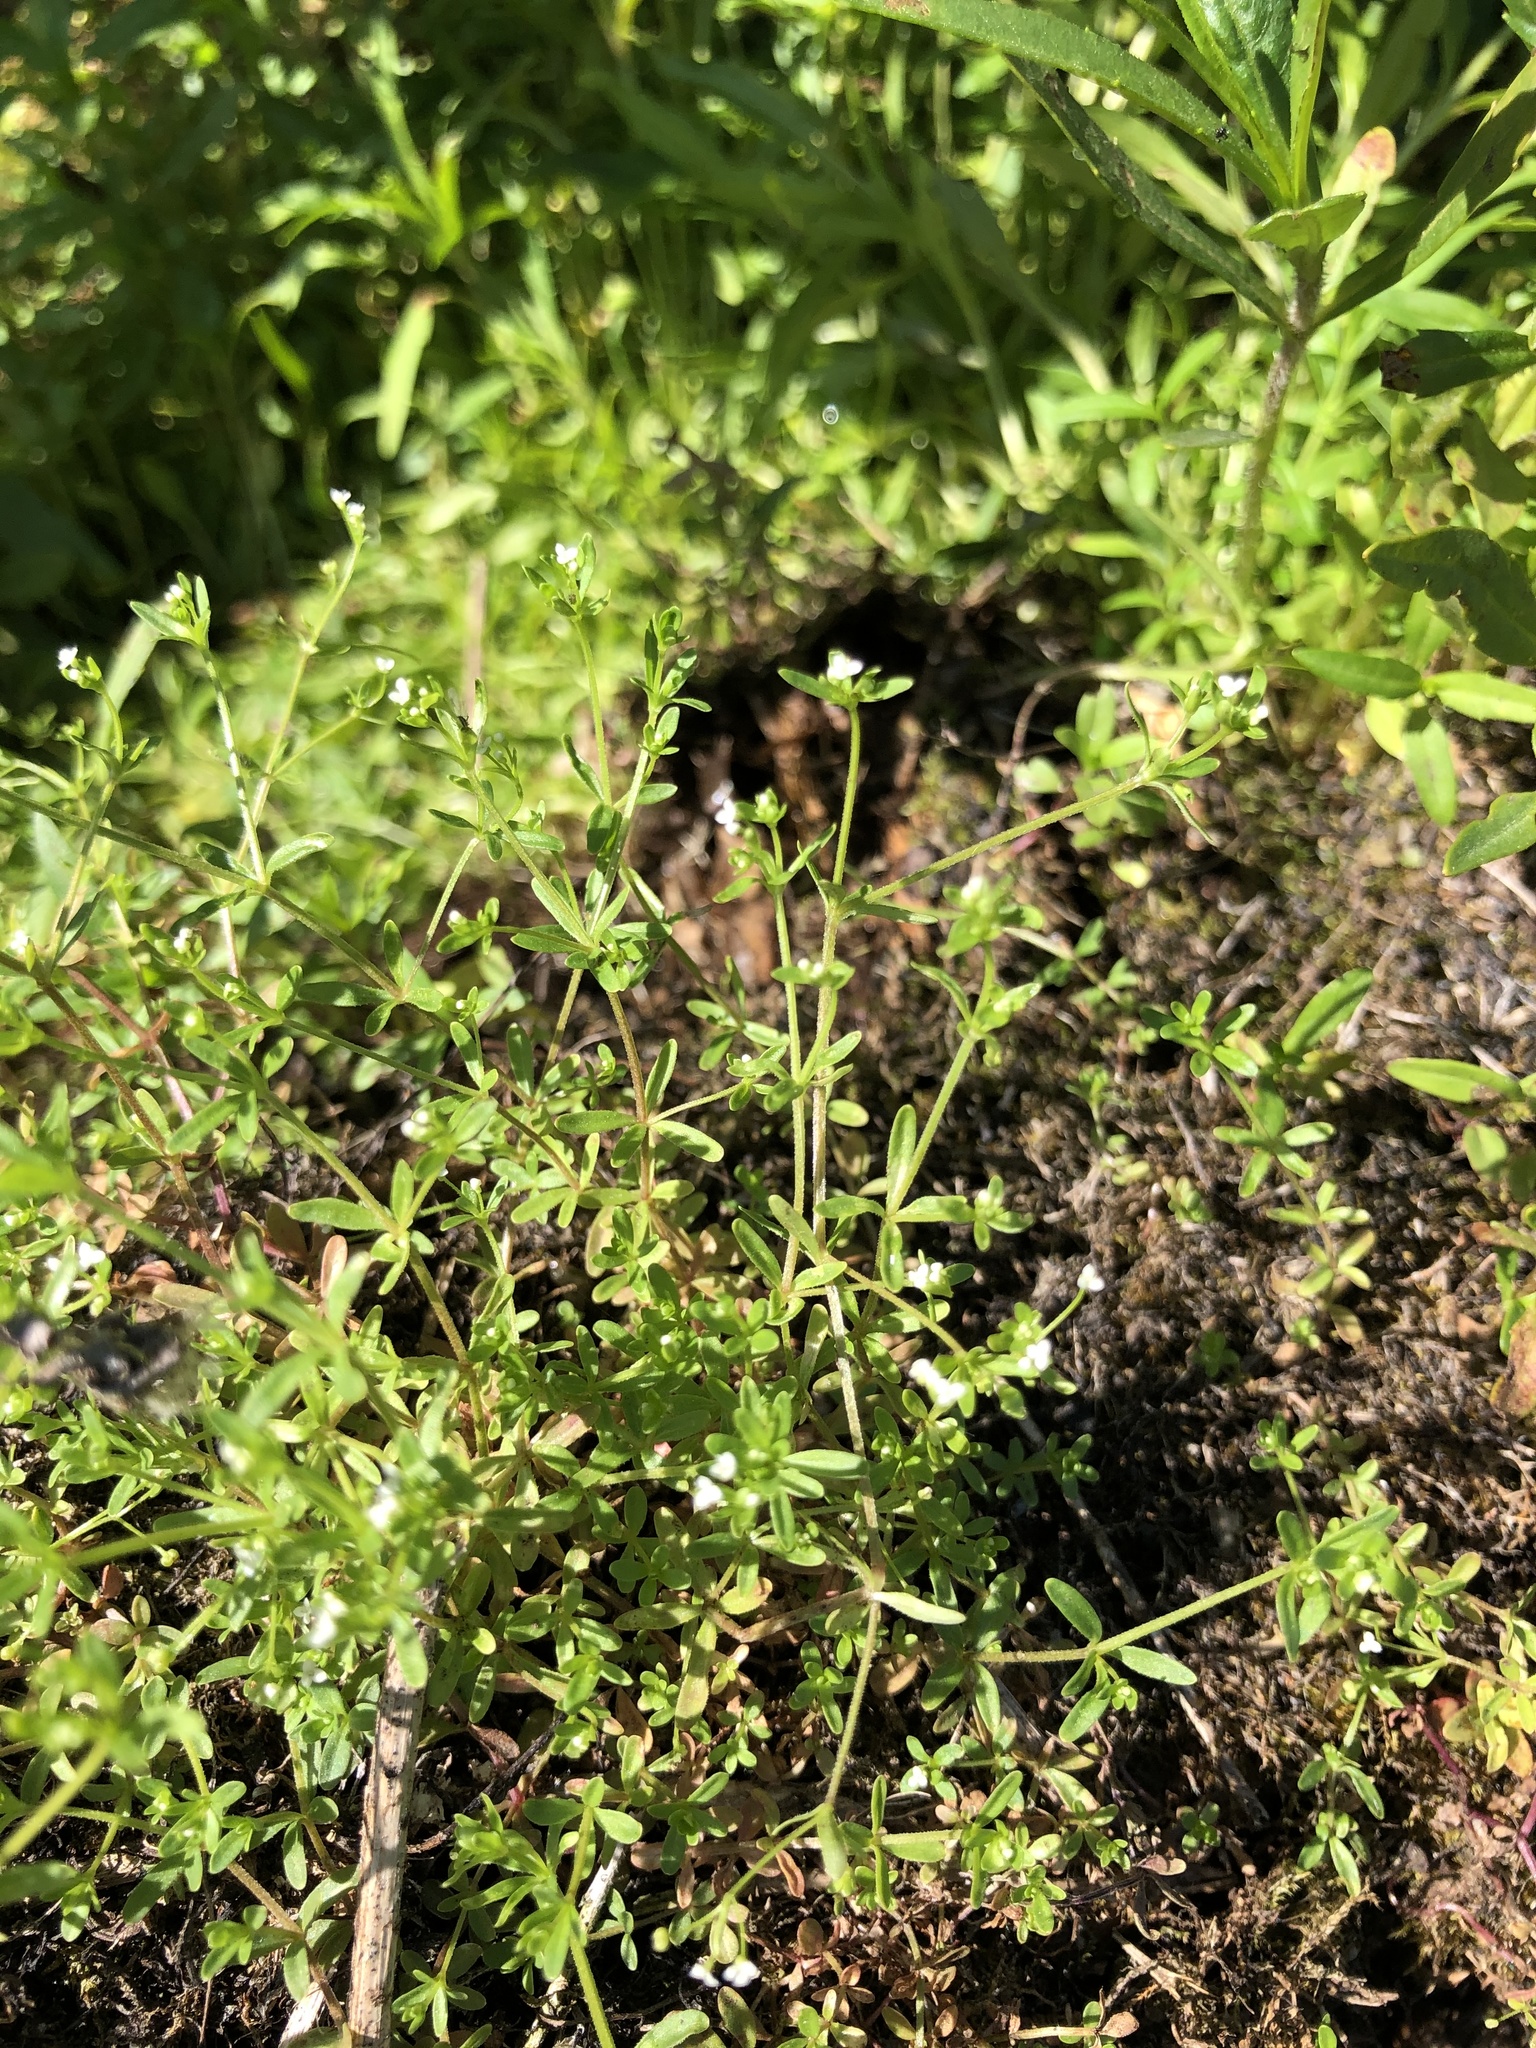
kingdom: Plantae
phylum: Tracheophyta
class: Magnoliopsida
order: Gentianales
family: Rubiaceae
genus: Galium
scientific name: Galium trifidum
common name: Small bedstraw
